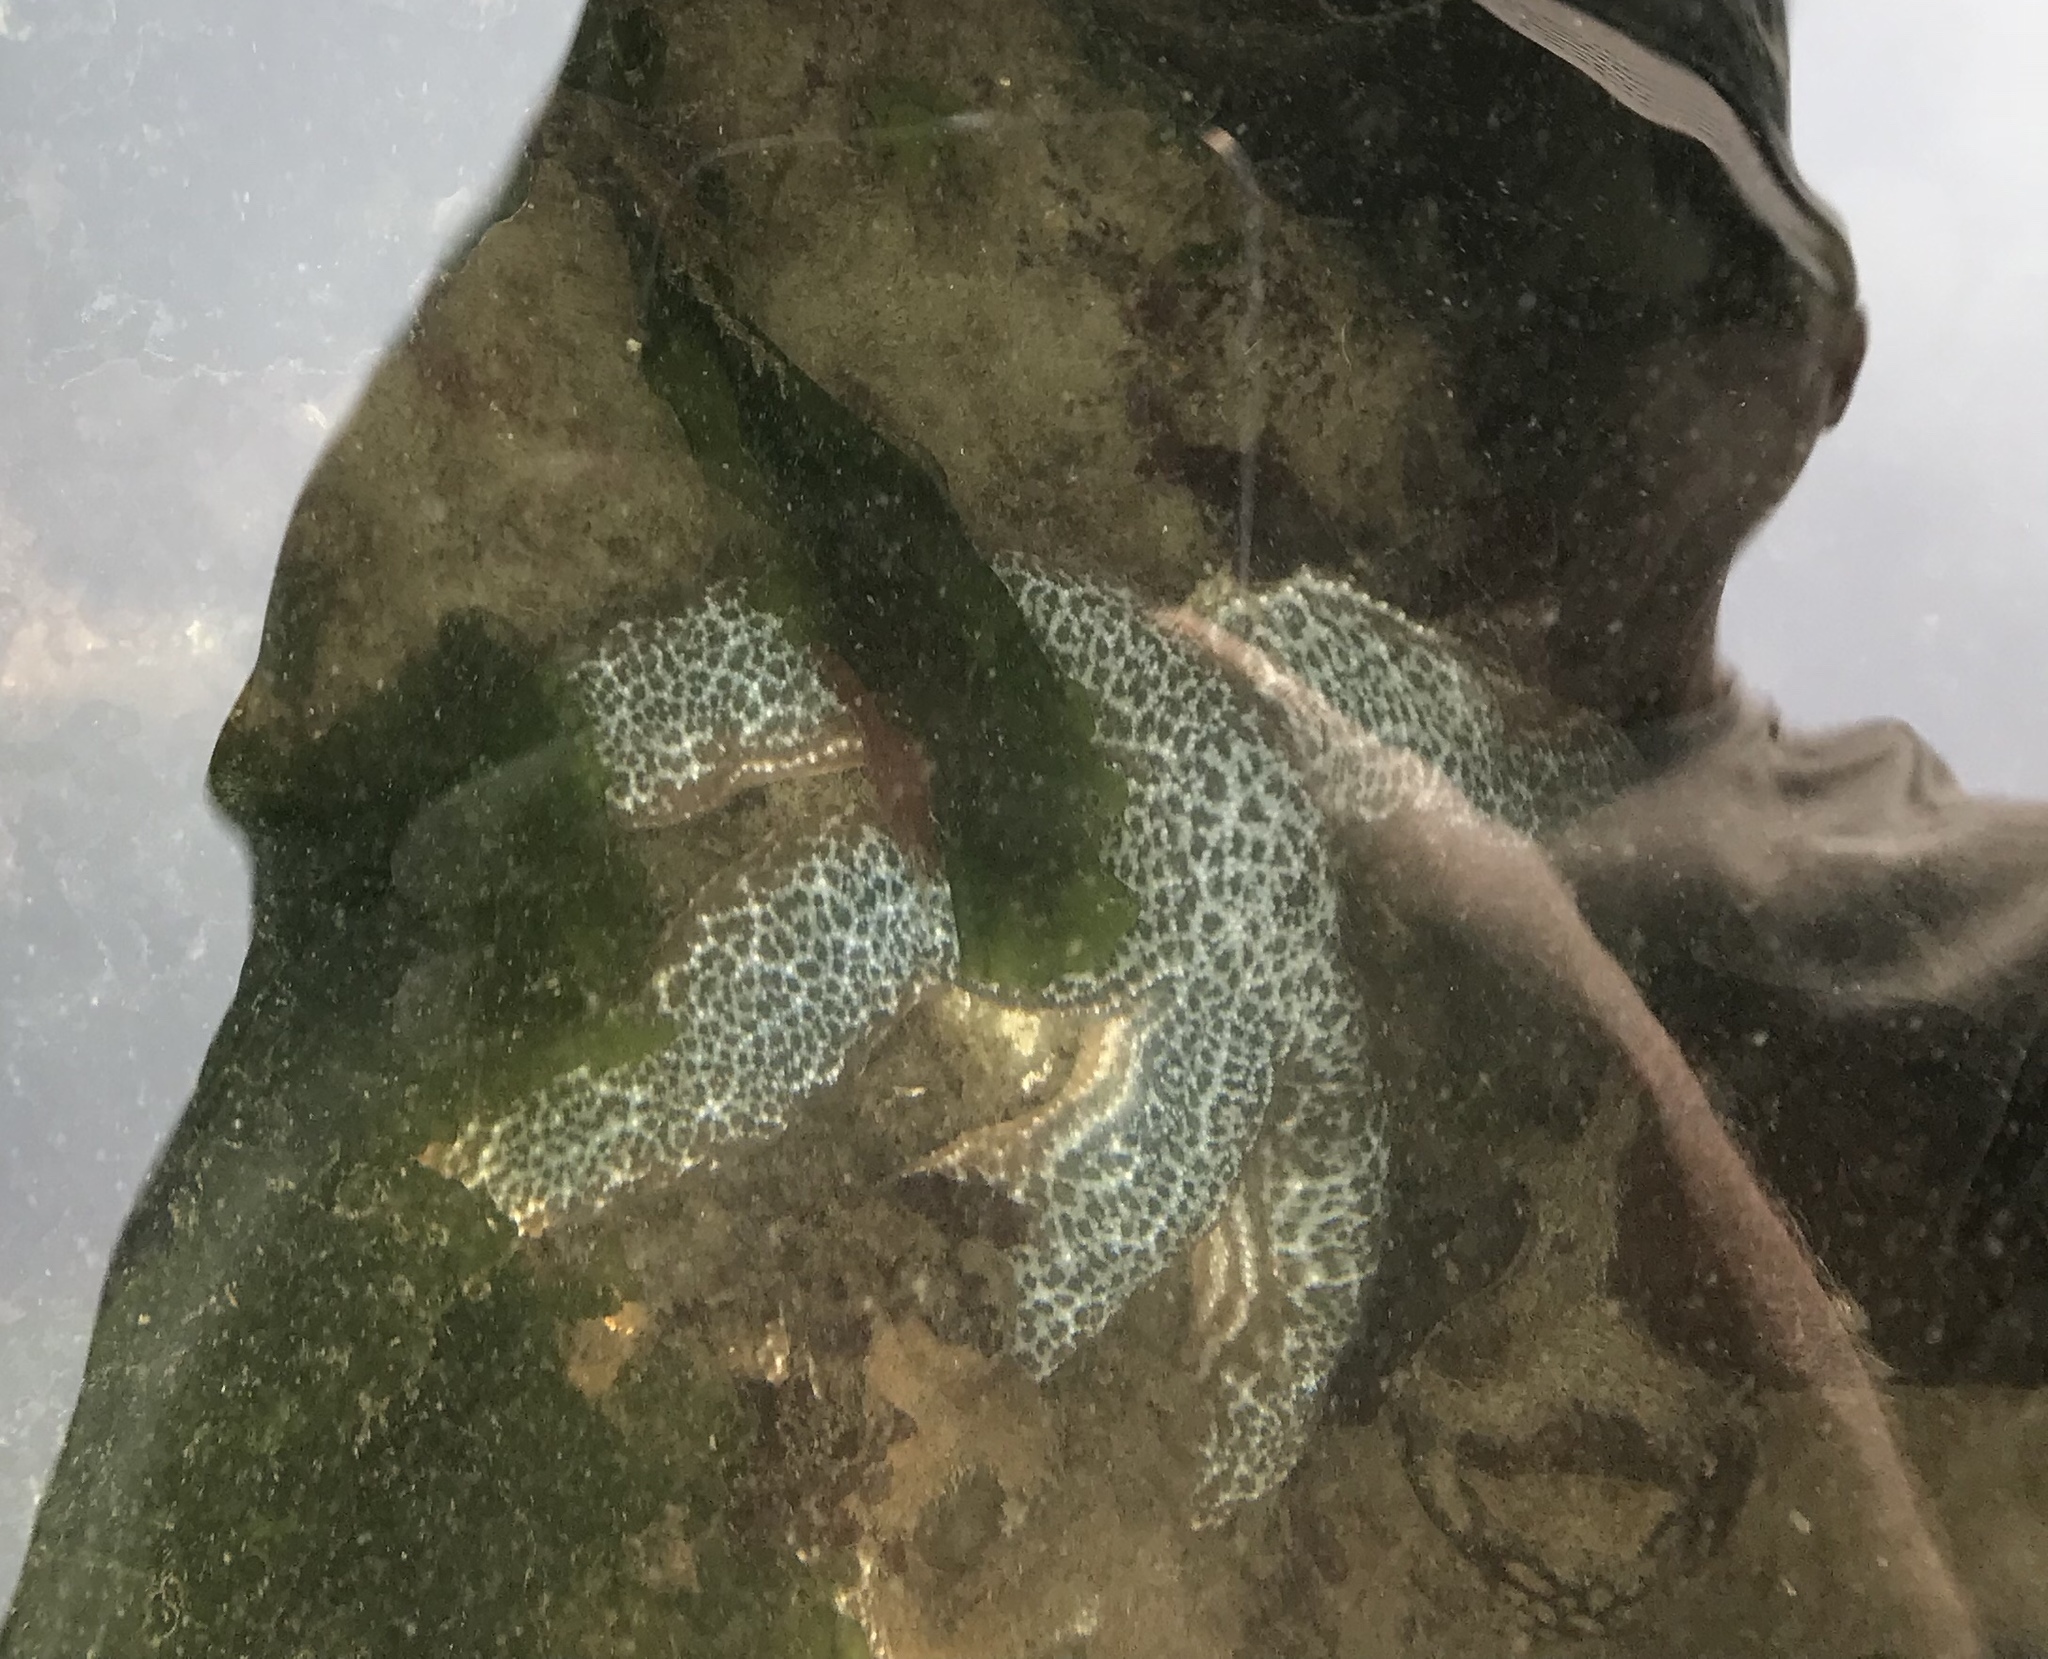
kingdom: Animalia
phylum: Echinodermata
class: Asteroidea
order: Forcipulatida
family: Asteriidae
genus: Evasterias
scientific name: Evasterias troschelii
